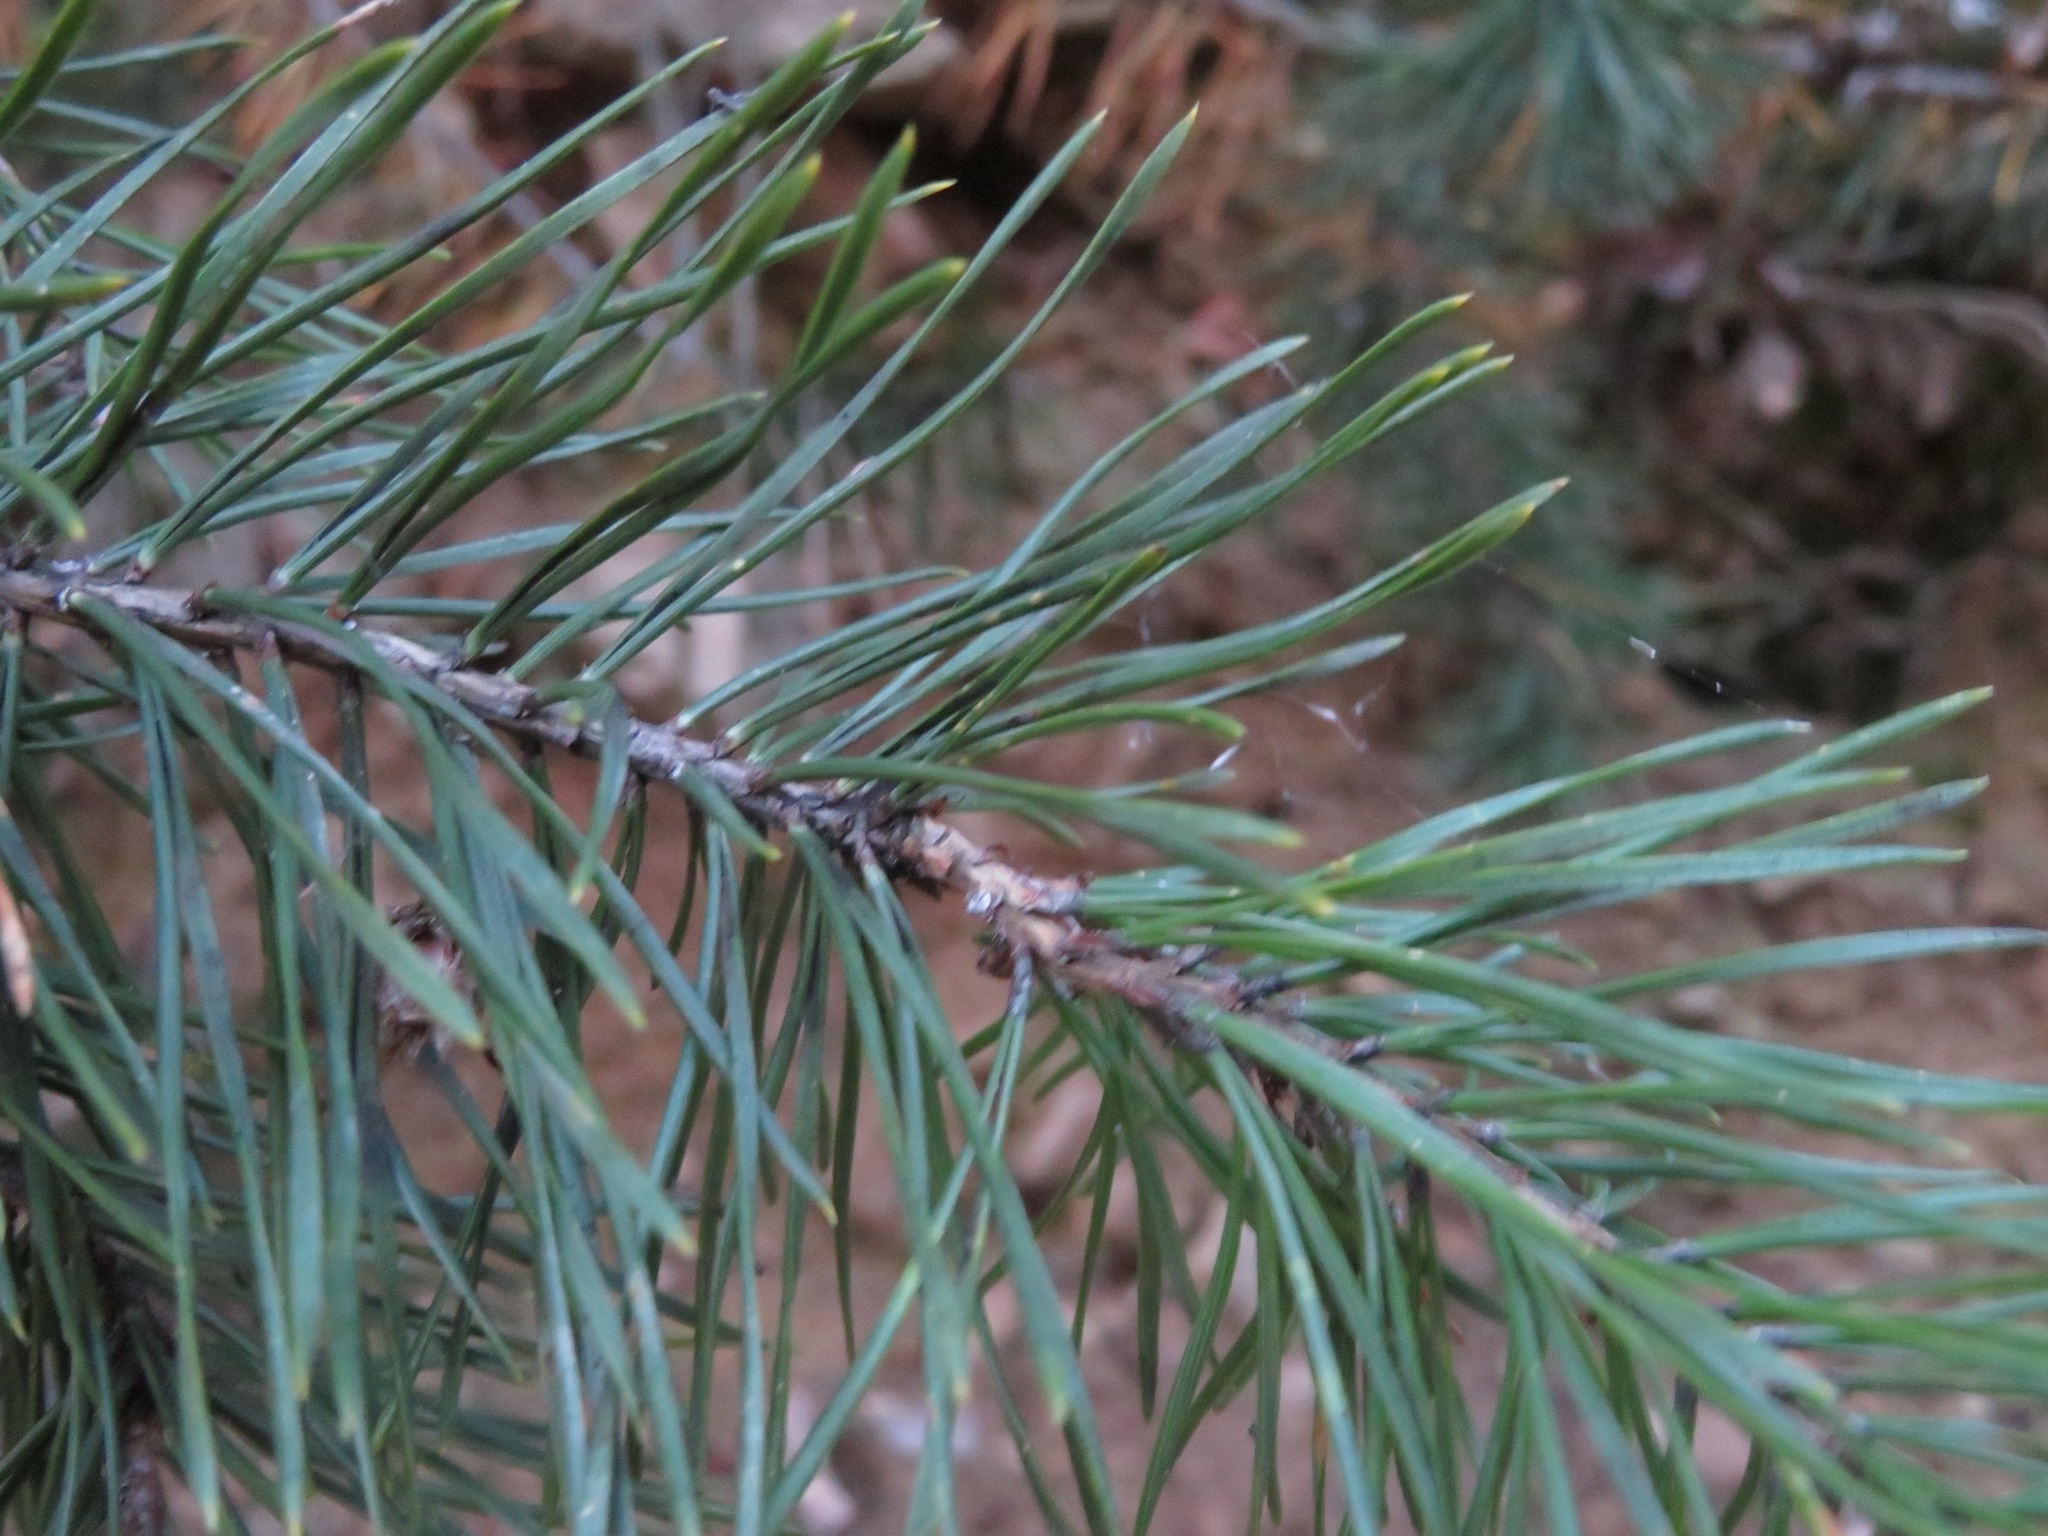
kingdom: Plantae
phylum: Tracheophyta
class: Pinopsida
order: Pinales
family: Pinaceae
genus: Pinus
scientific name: Pinus sylvestris
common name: Scots pine
